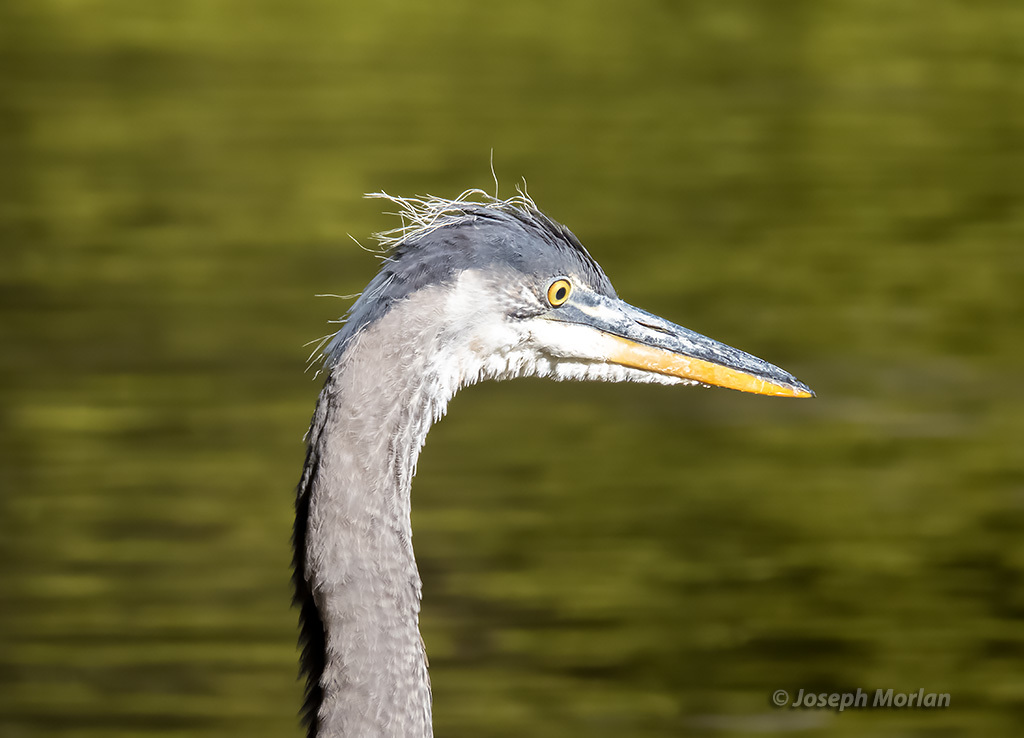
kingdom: Animalia
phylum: Chordata
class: Aves
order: Pelecaniformes
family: Ardeidae
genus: Ardea
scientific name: Ardea herodias
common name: Great blue heron
